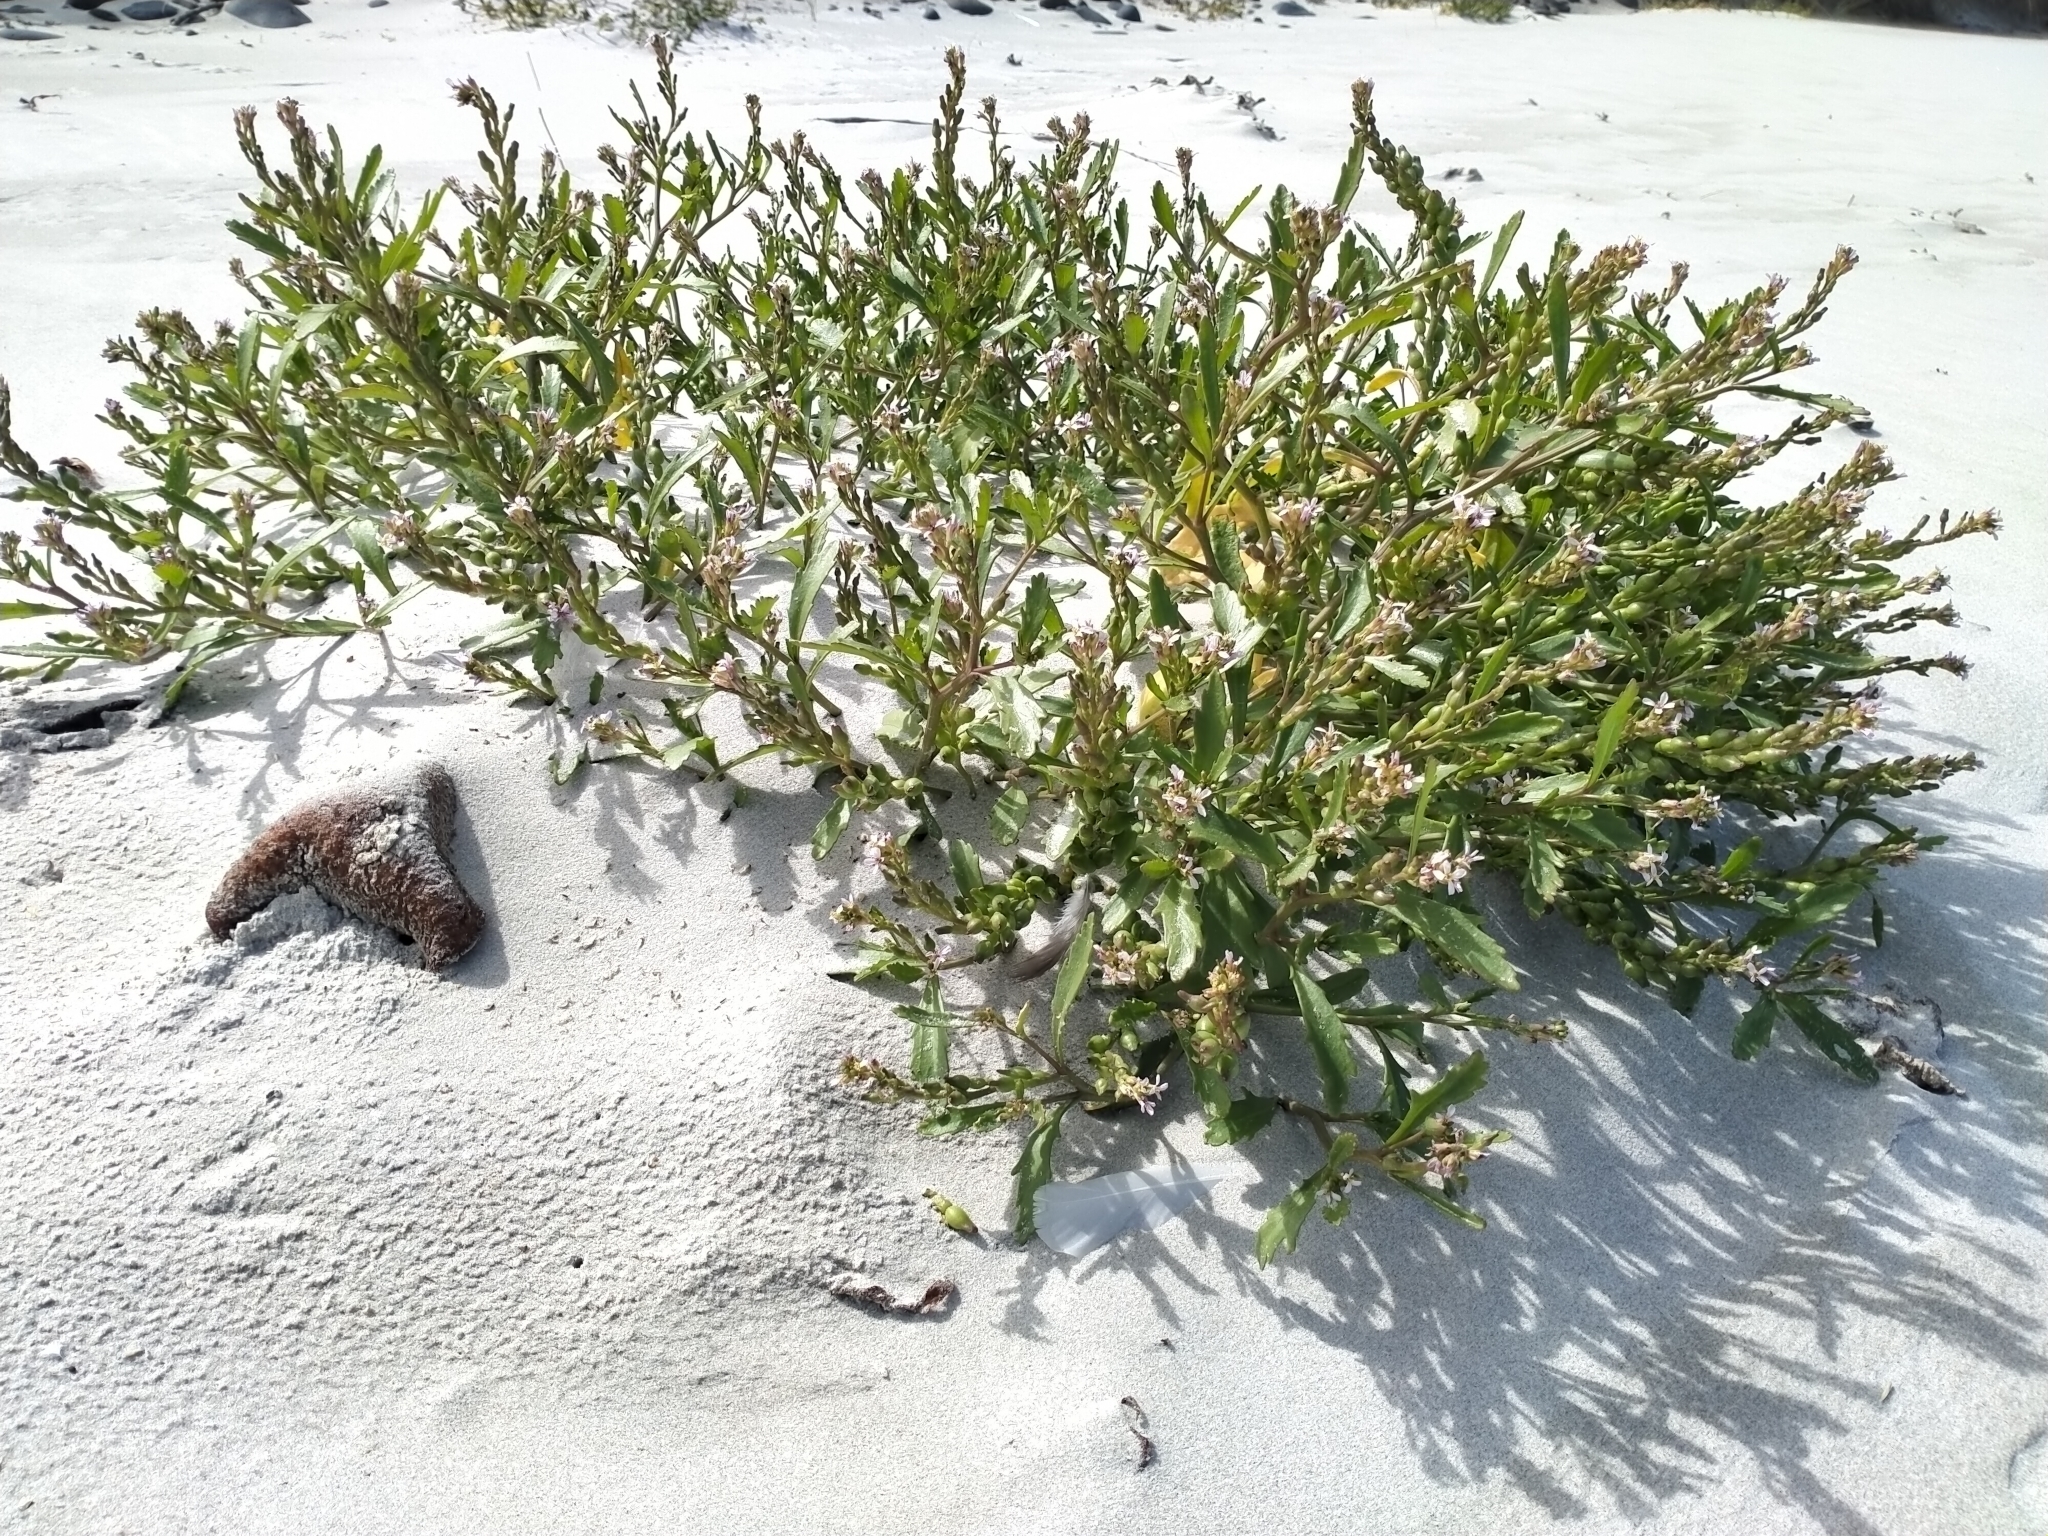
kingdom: Plantae
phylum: Tracheophyta
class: Magnoliopsida
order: Brassicales
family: Brassicaceae
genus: Cakile
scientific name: Cakile edentula
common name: American sea rocket
